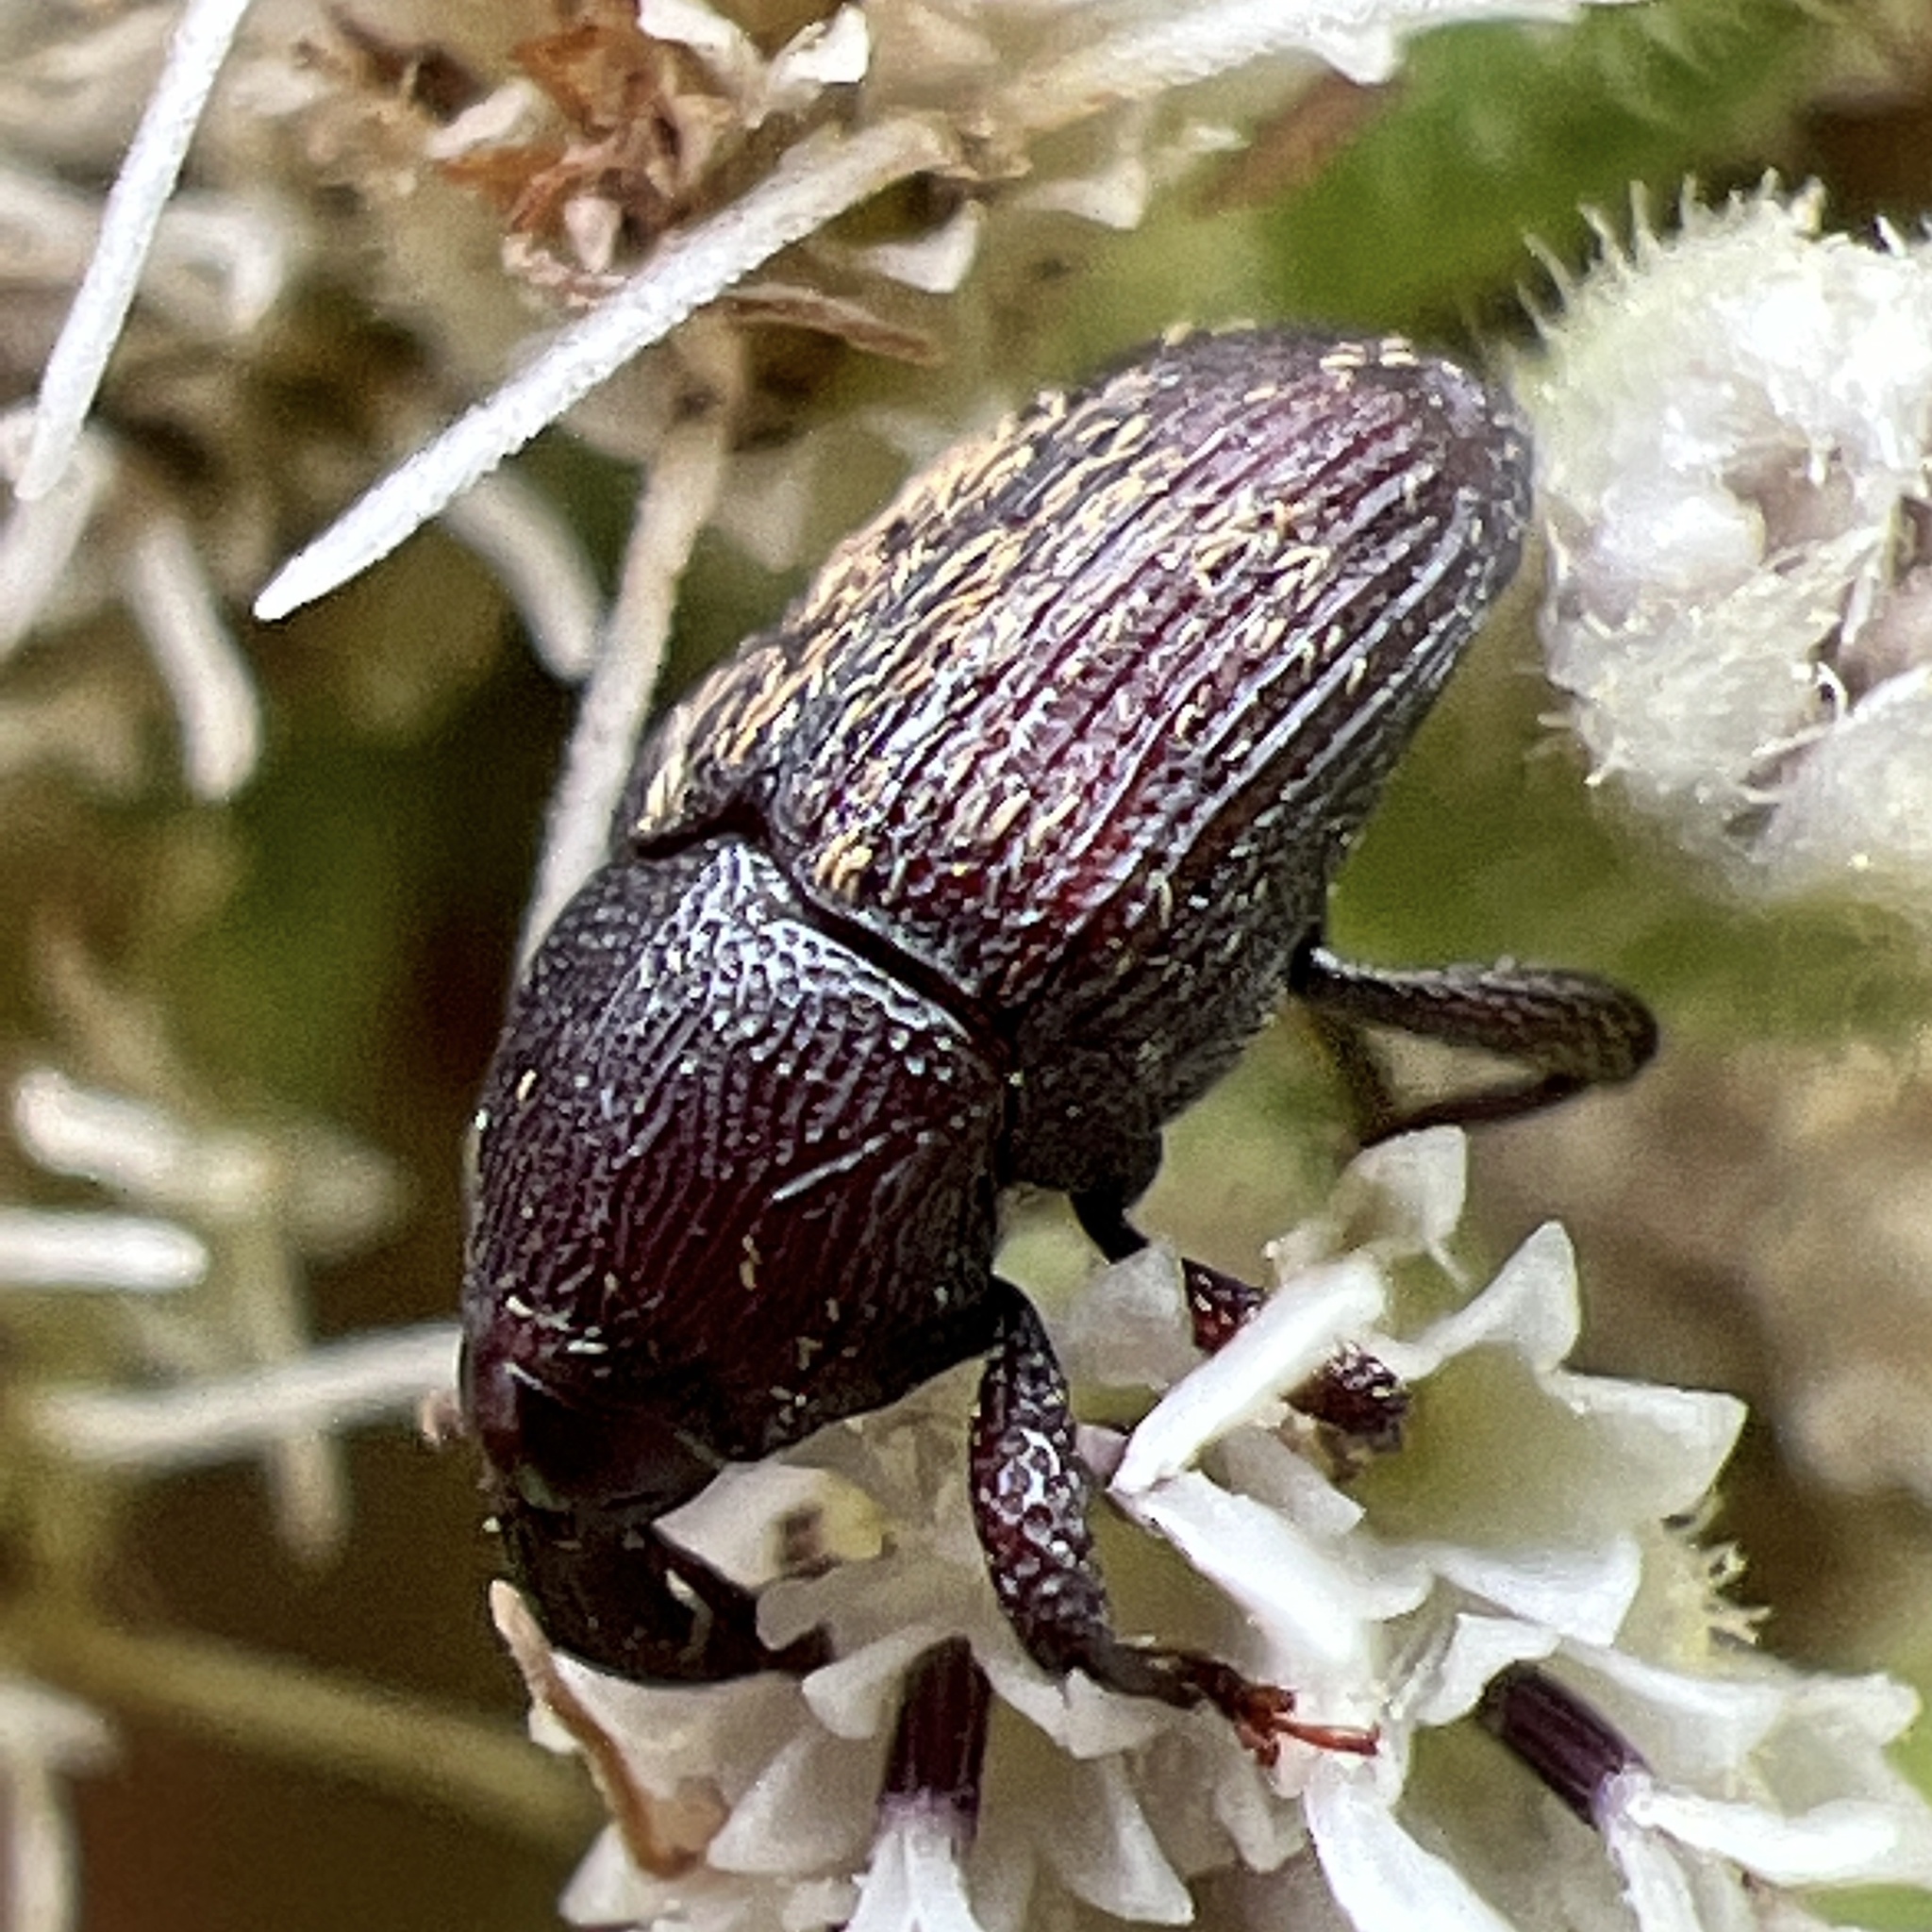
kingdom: Animalia
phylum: Arthropoda
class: Insecta
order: Coleoptera
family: Curculionidae
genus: Glyptobaris
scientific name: Glyptobaris lecontei
